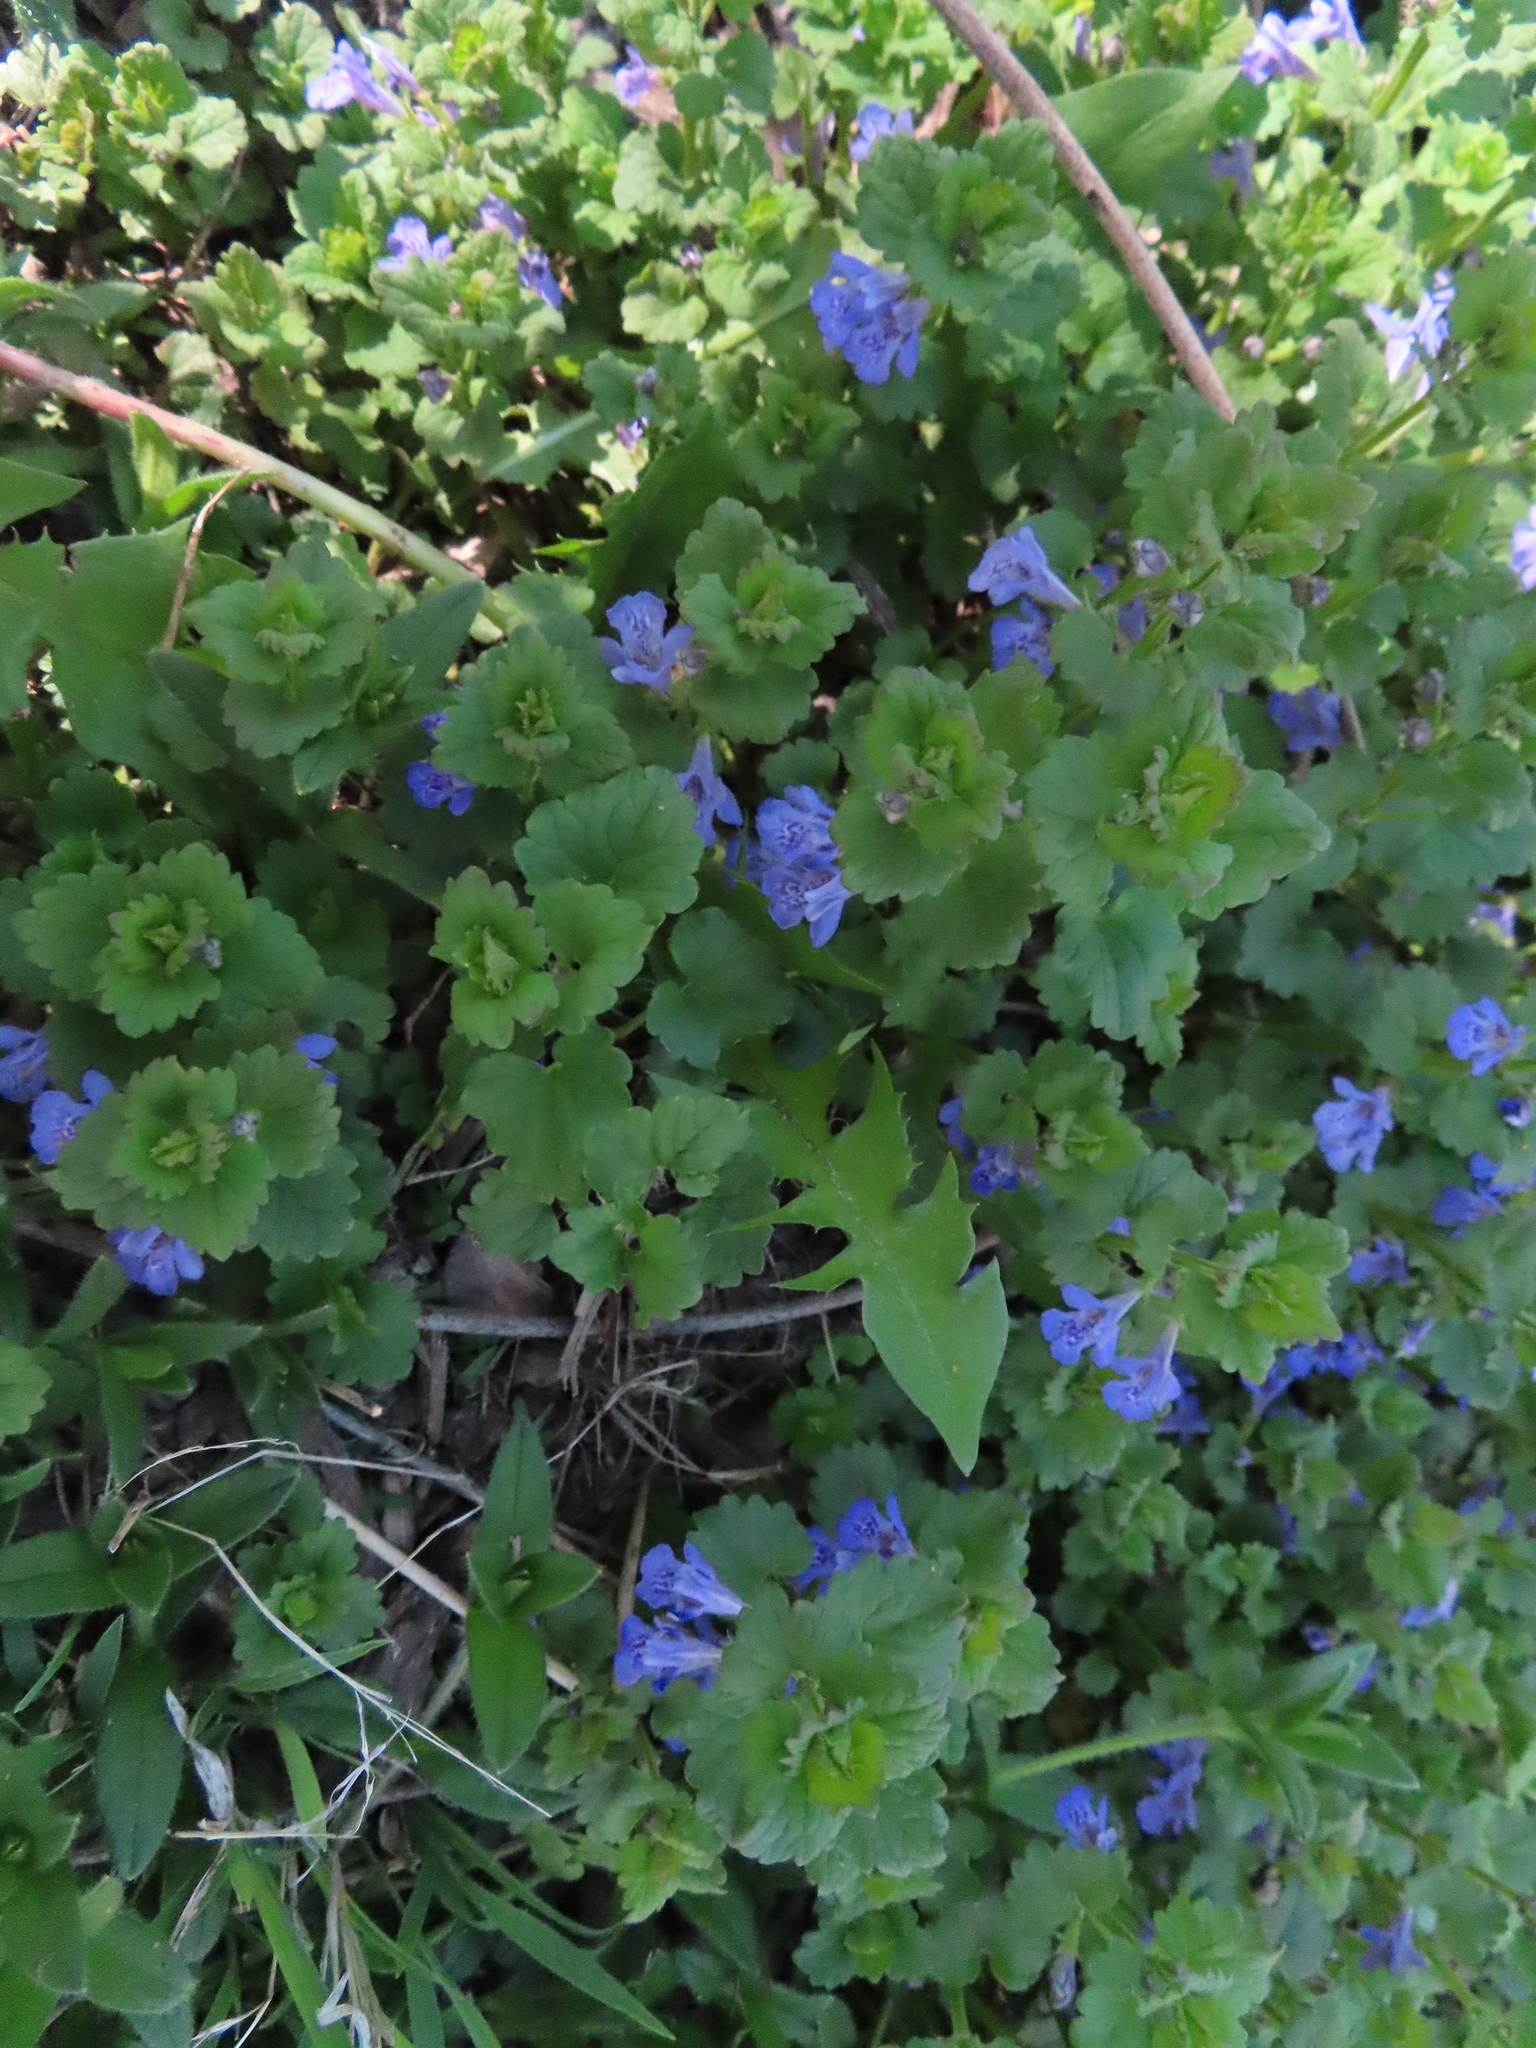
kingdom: Plantae
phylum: Tracheophyta
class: Magnoliopsida
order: Lamiales
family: Lamiaceae
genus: Glechoma
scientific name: Glechoma hederacea
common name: Ground ivy
